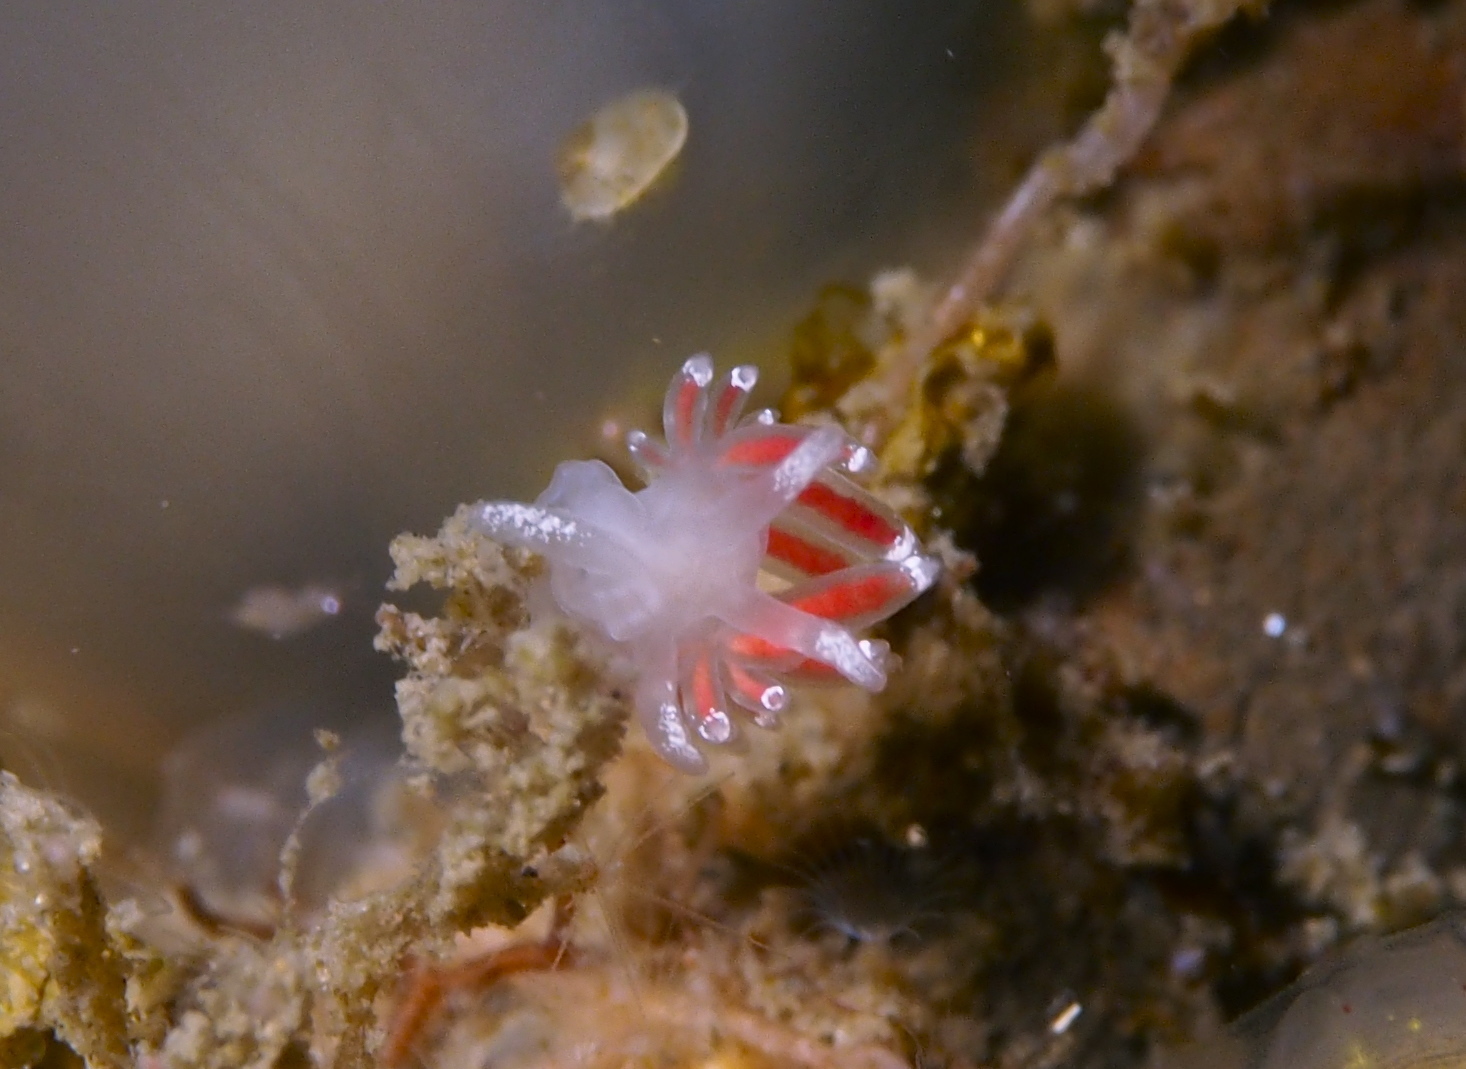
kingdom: Animalia
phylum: Mollusca
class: Gastropoda
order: Nudibranchia
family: Coryphellidae
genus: Coryphella
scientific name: Coryphella gracilis
